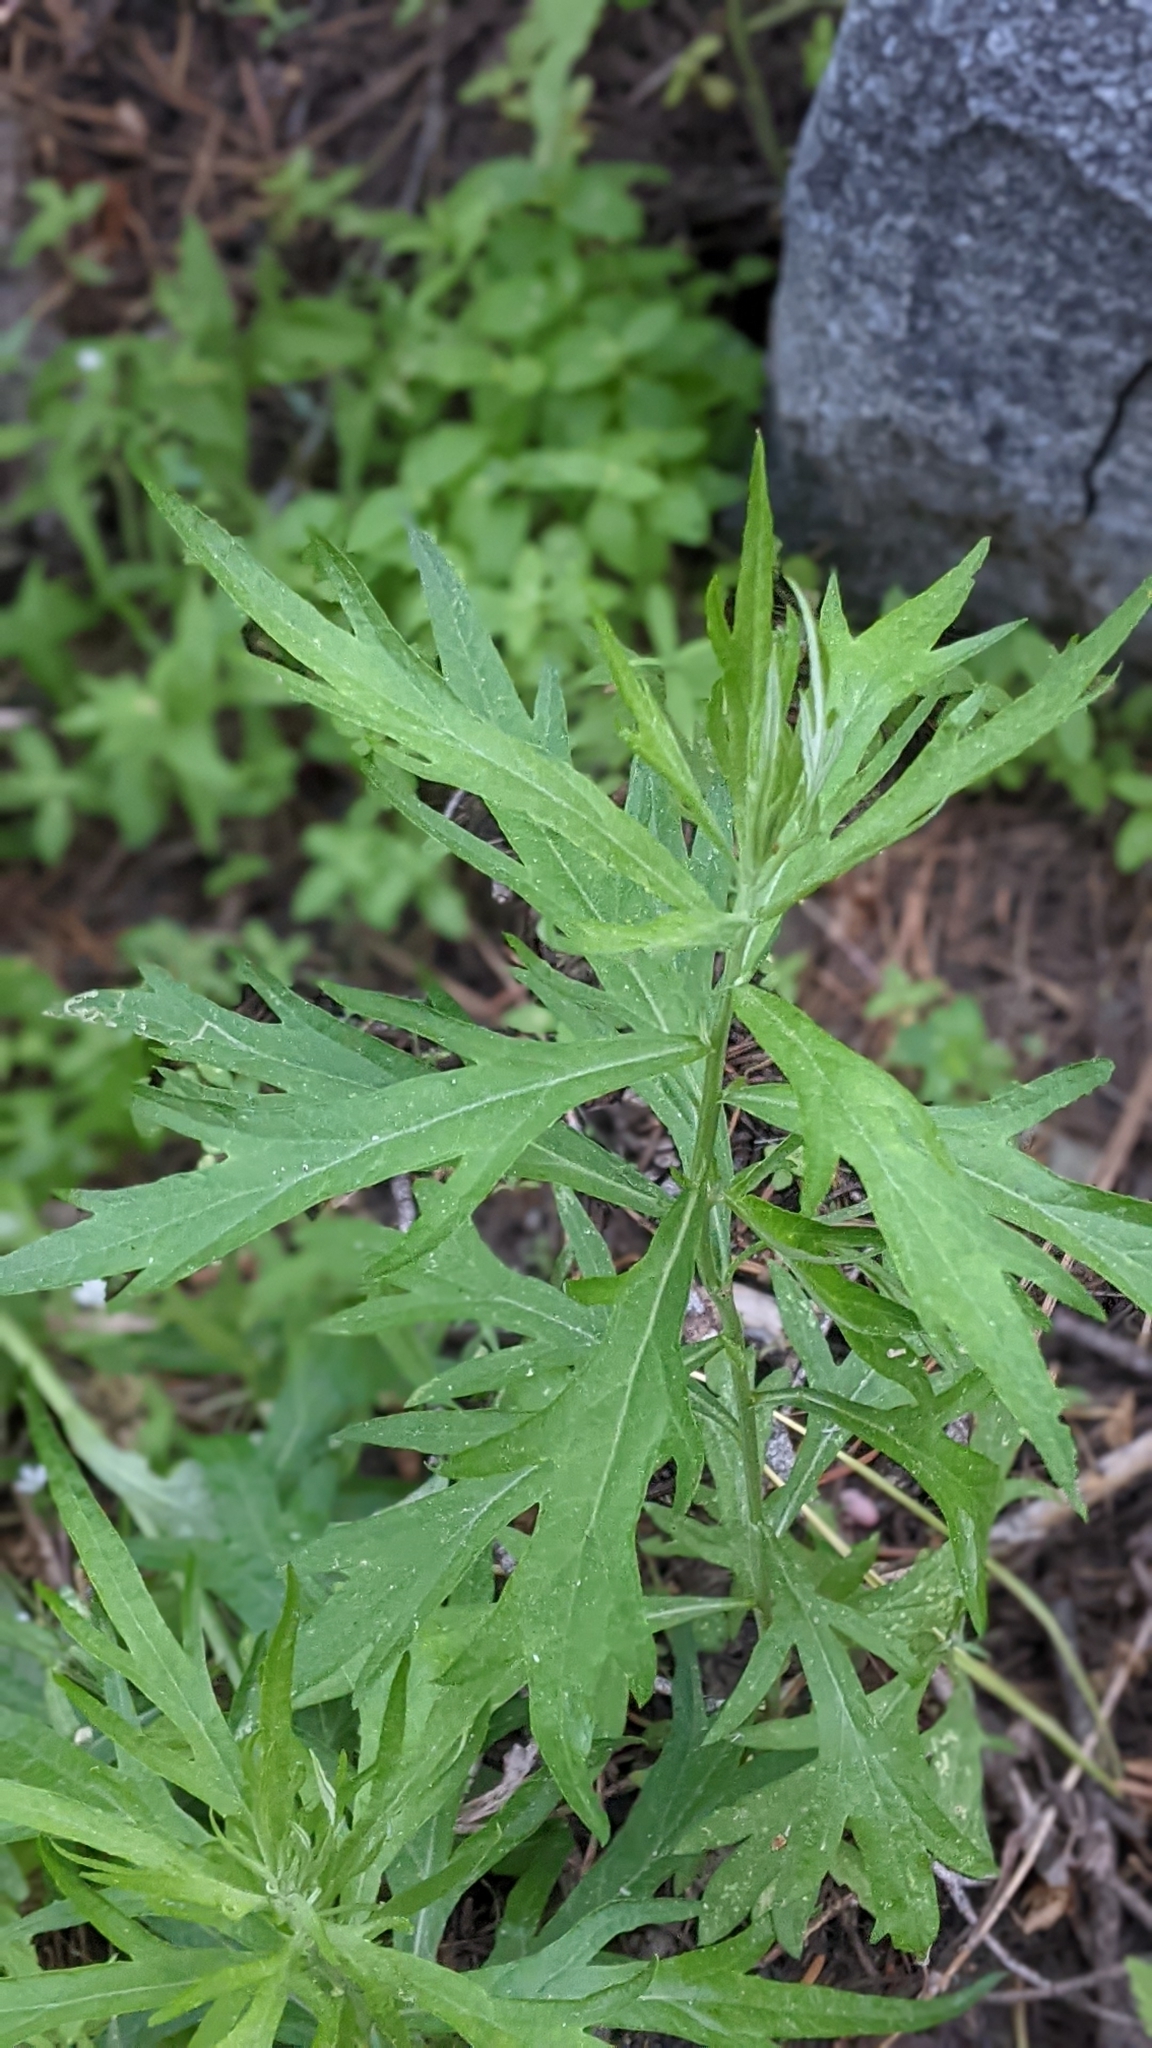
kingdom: Plantae
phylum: Tracheophyta
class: Magnoliopsida
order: Asterales
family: Asteraceae
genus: Artemisia
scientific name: Artemisia douglasiana
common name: Northwest mugwort
